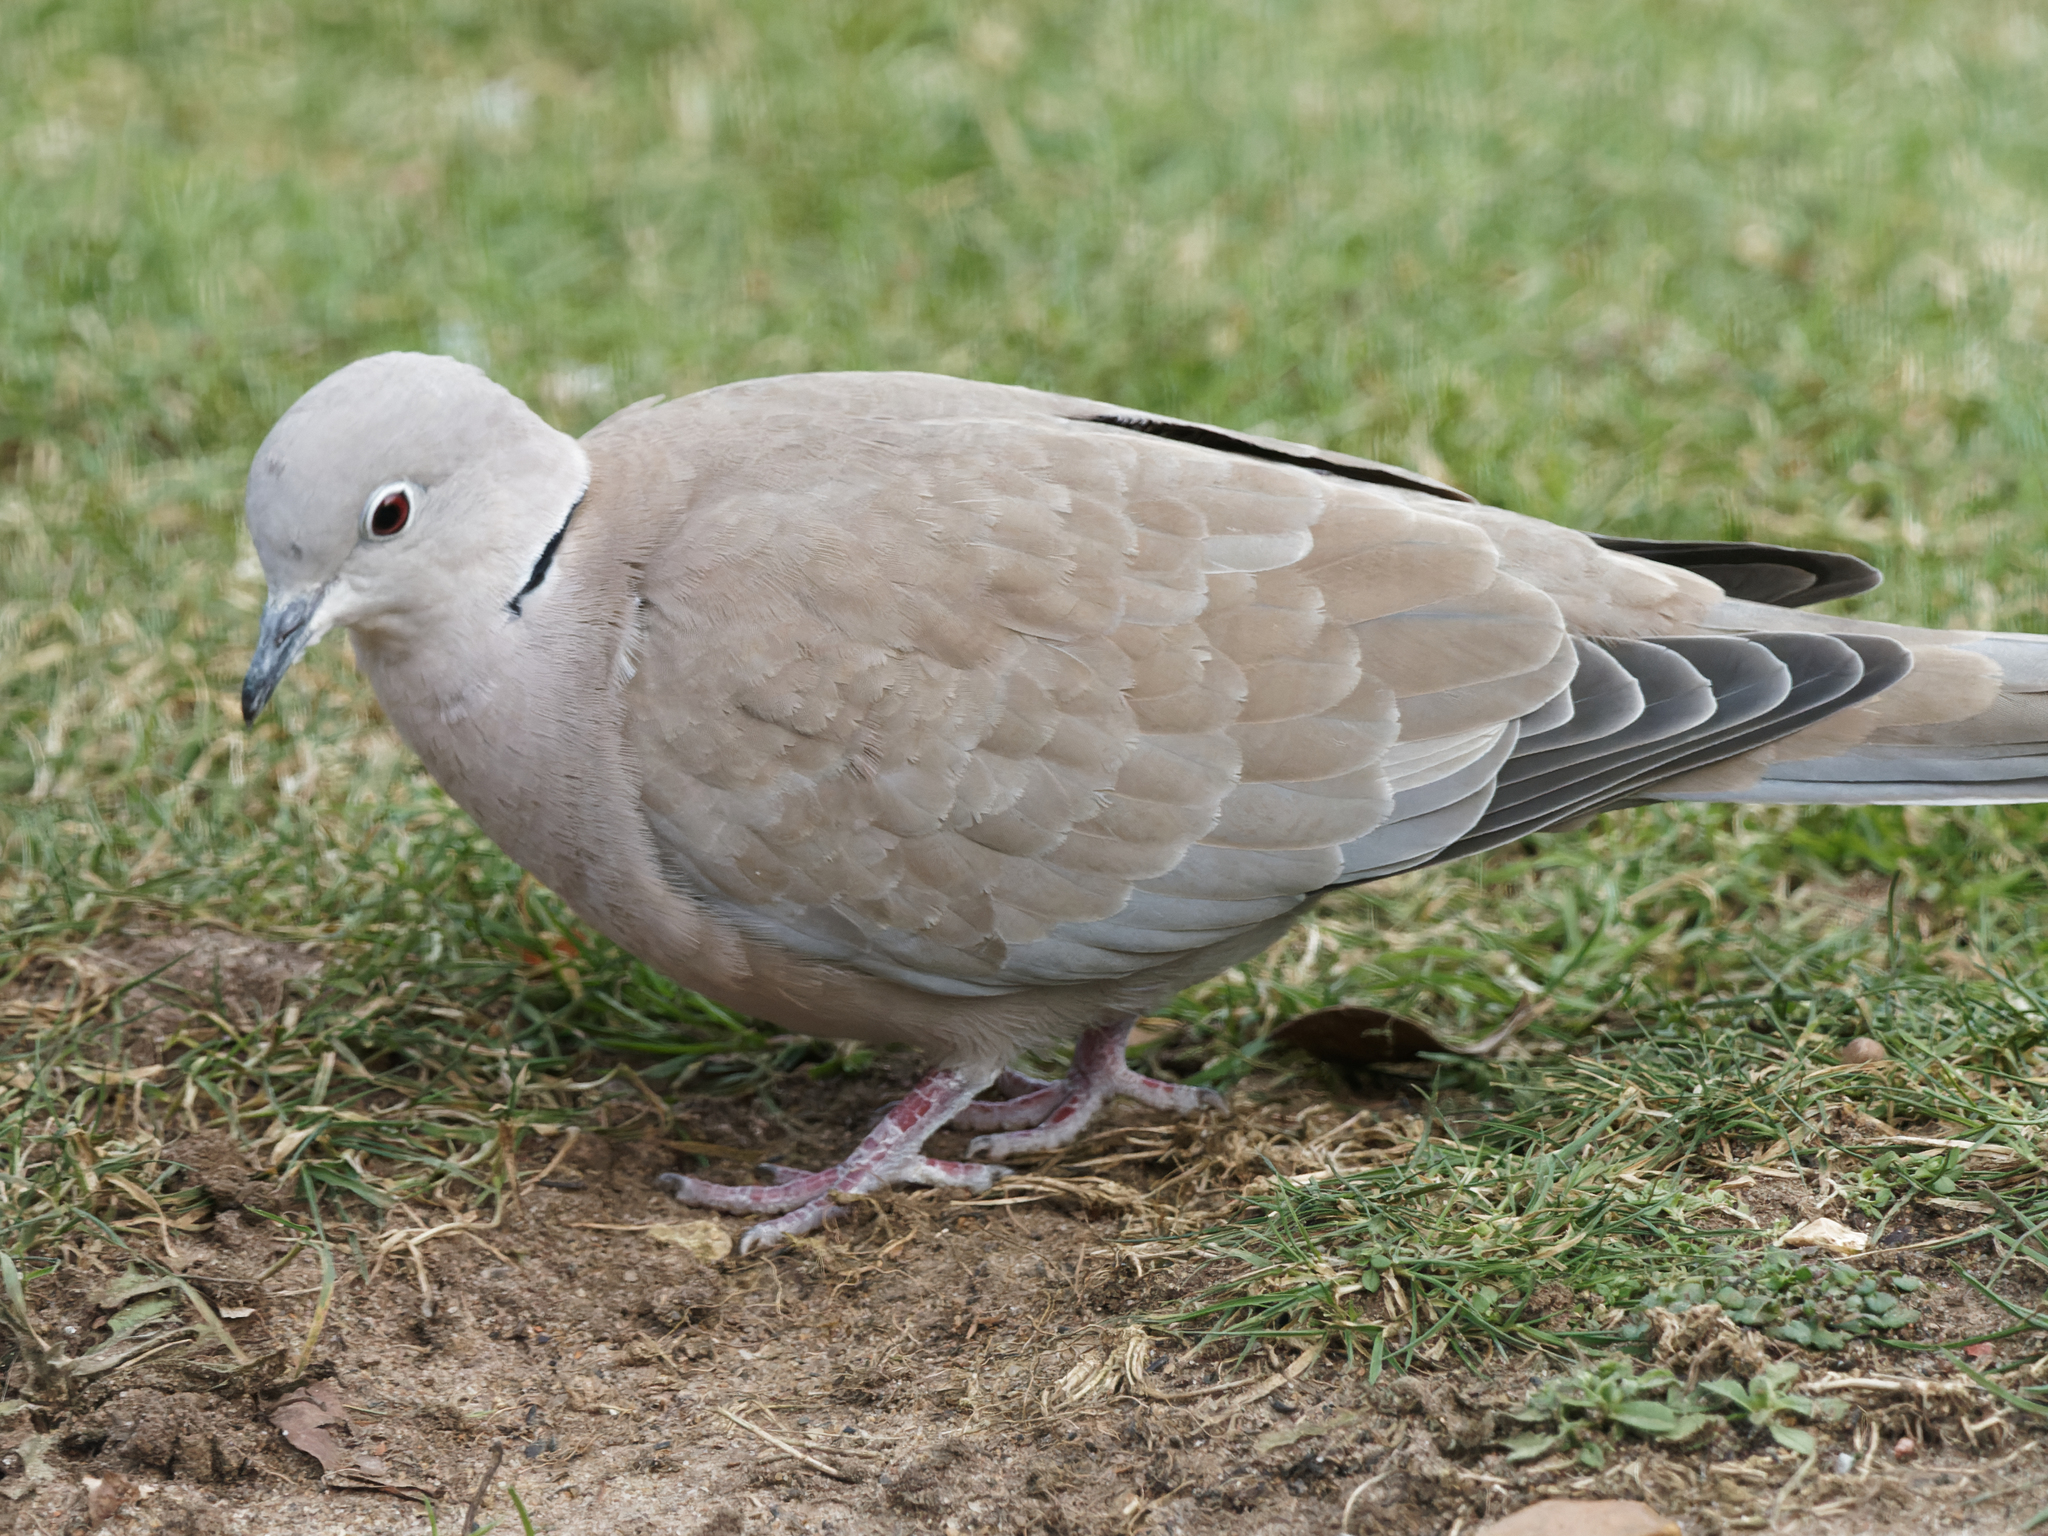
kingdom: Animalia
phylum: Chordata
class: Aves
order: Columbiformes
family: Columbidae
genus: Streptopelia
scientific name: Streptopelia decaocto
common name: Eurasian collared dove
